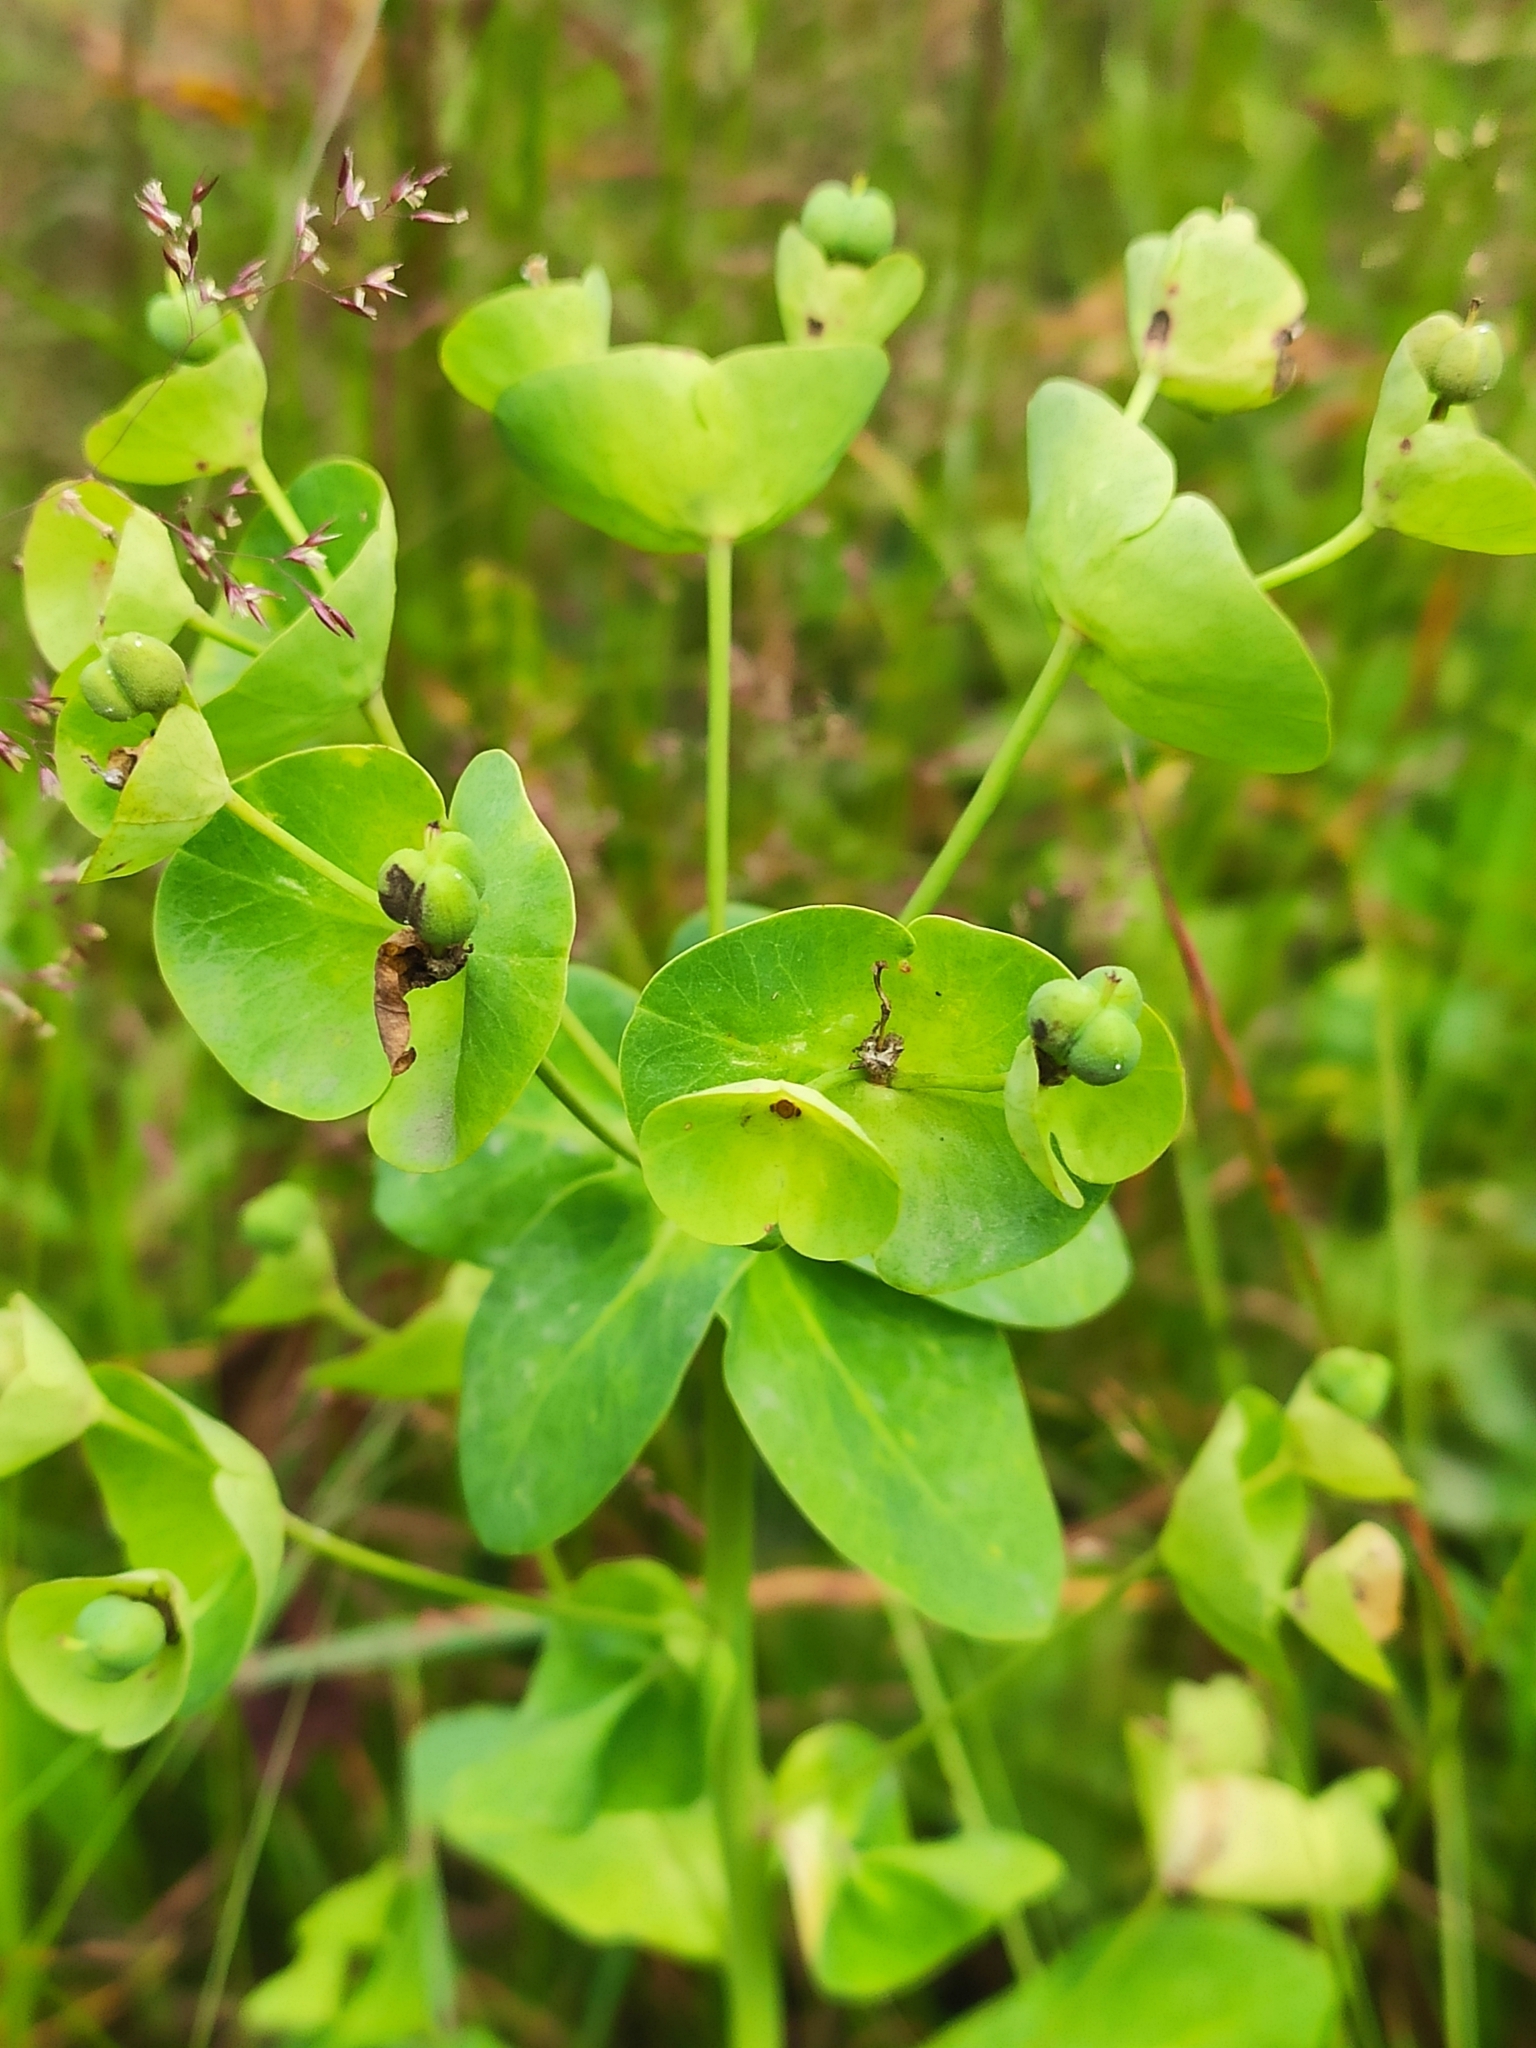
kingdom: Plantae
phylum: Tracheophyta
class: Magnoliopsida
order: Malpighiales
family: Euphorbiaceae
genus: Euphorbia
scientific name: Euphorbia oblongifolia
